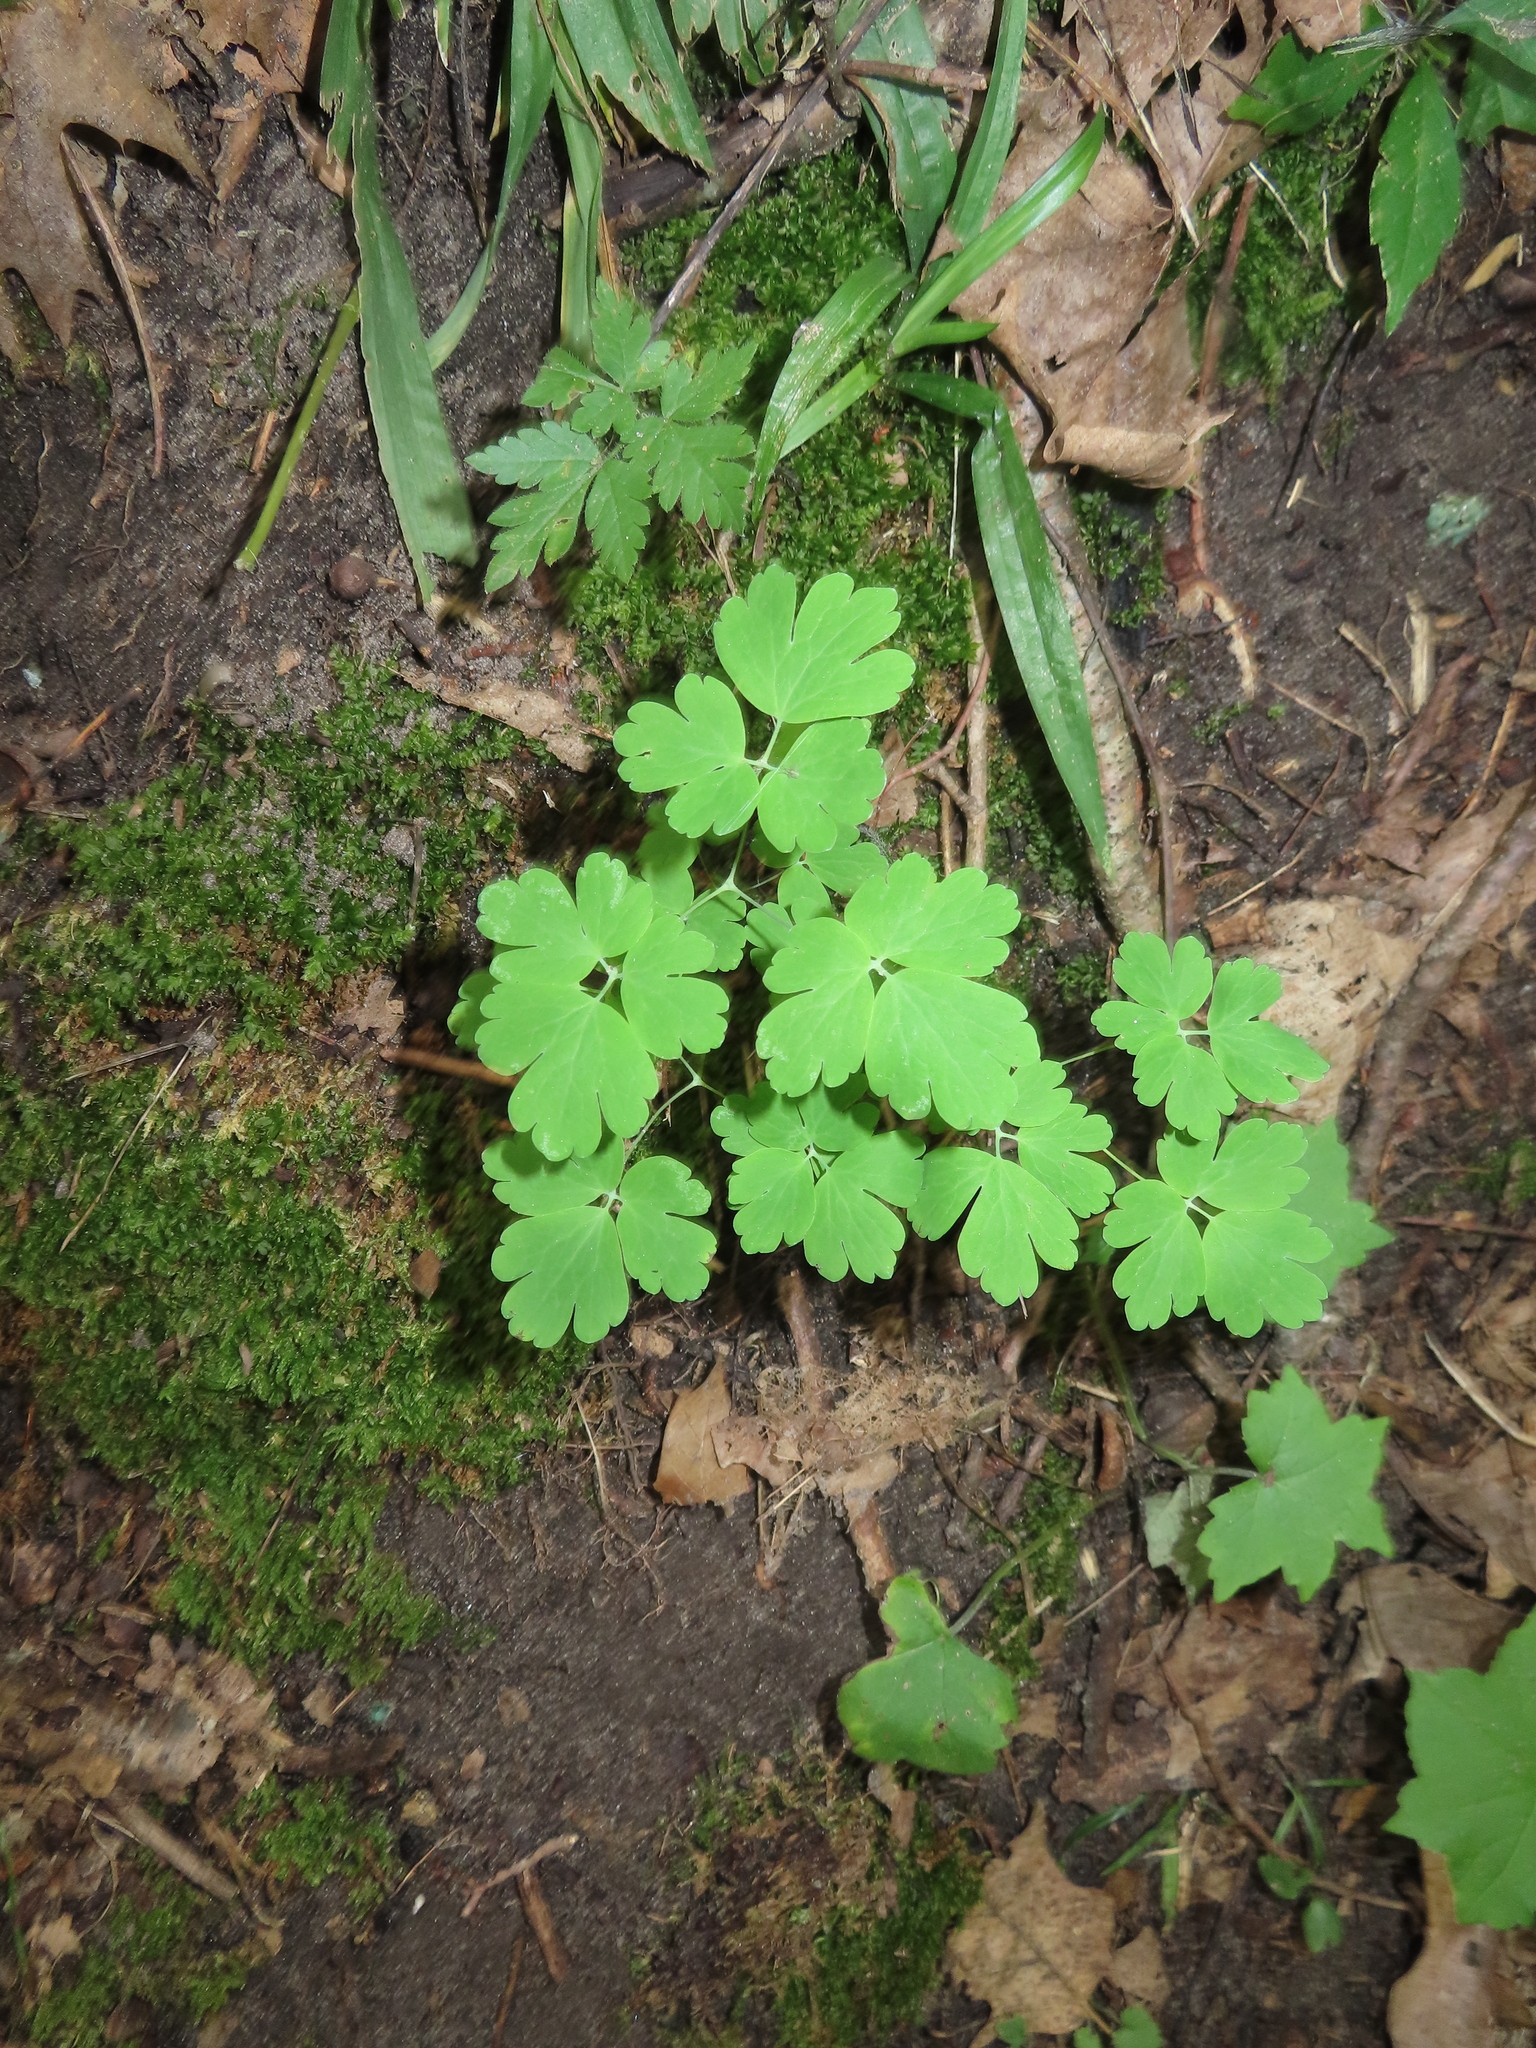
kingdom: Plantae
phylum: Tracheophyta
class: Magnoliopsida
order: Ranunculales
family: Ranunculaceae
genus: Aquilegia
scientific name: Aquilegia canadensis
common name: American columbine
